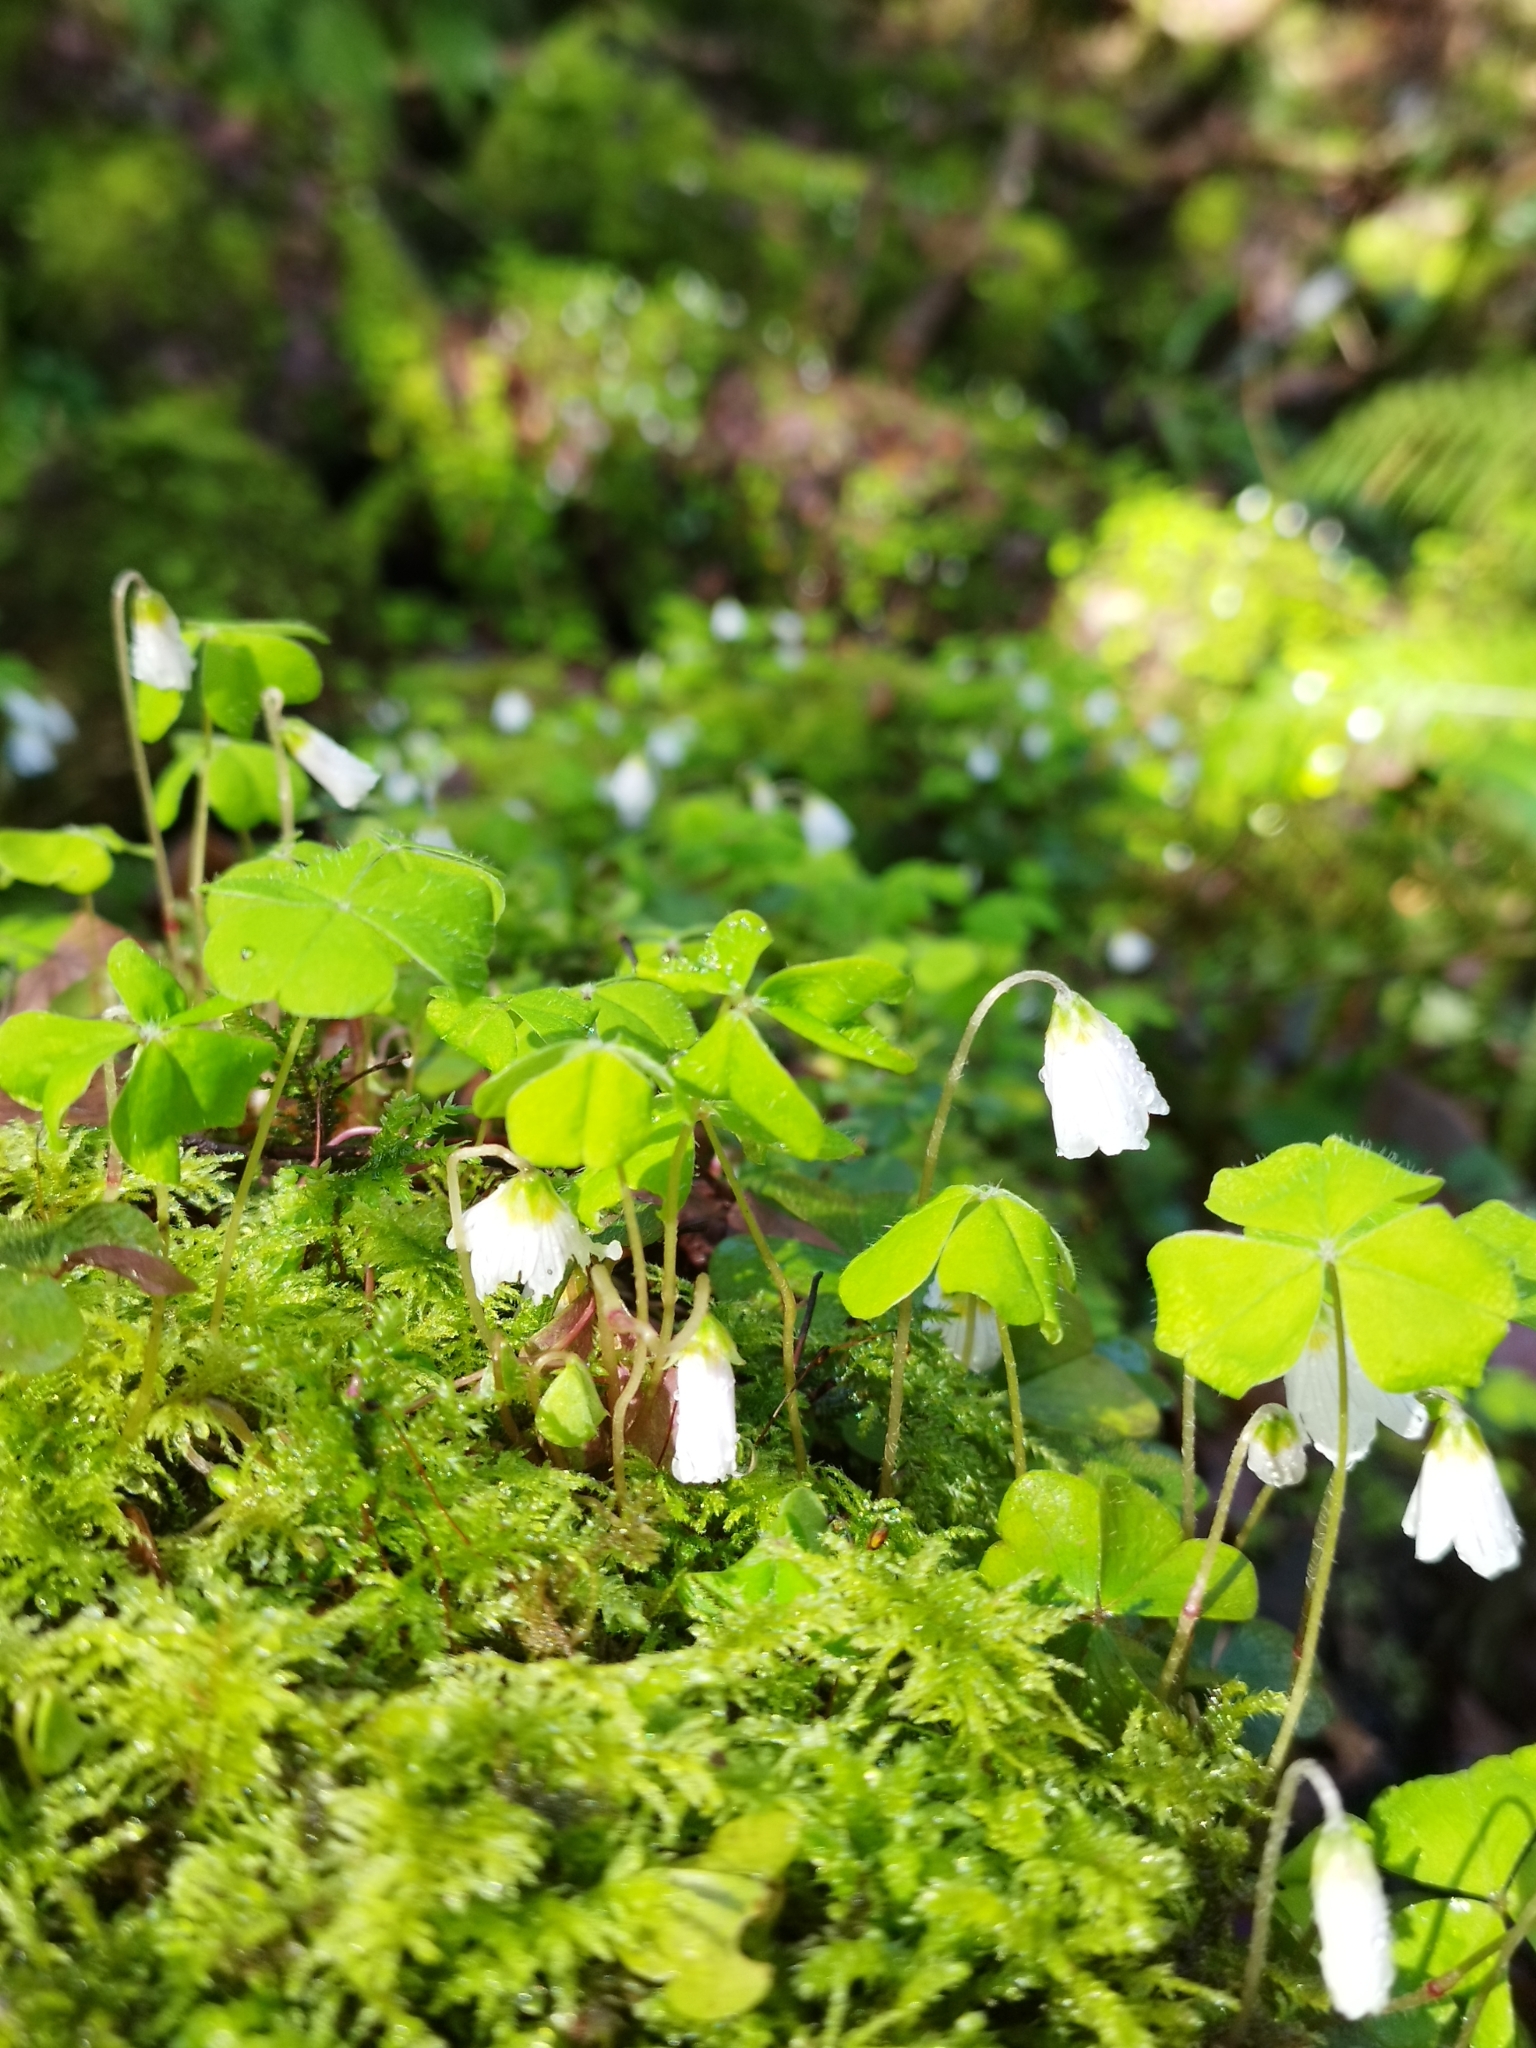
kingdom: Plantae
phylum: Tracheophyta
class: Magnoliopsida
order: Oxalidales
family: Oxalidaceae
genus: Oxalis
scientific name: Oxalis acetosella
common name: Wood-sorrel
